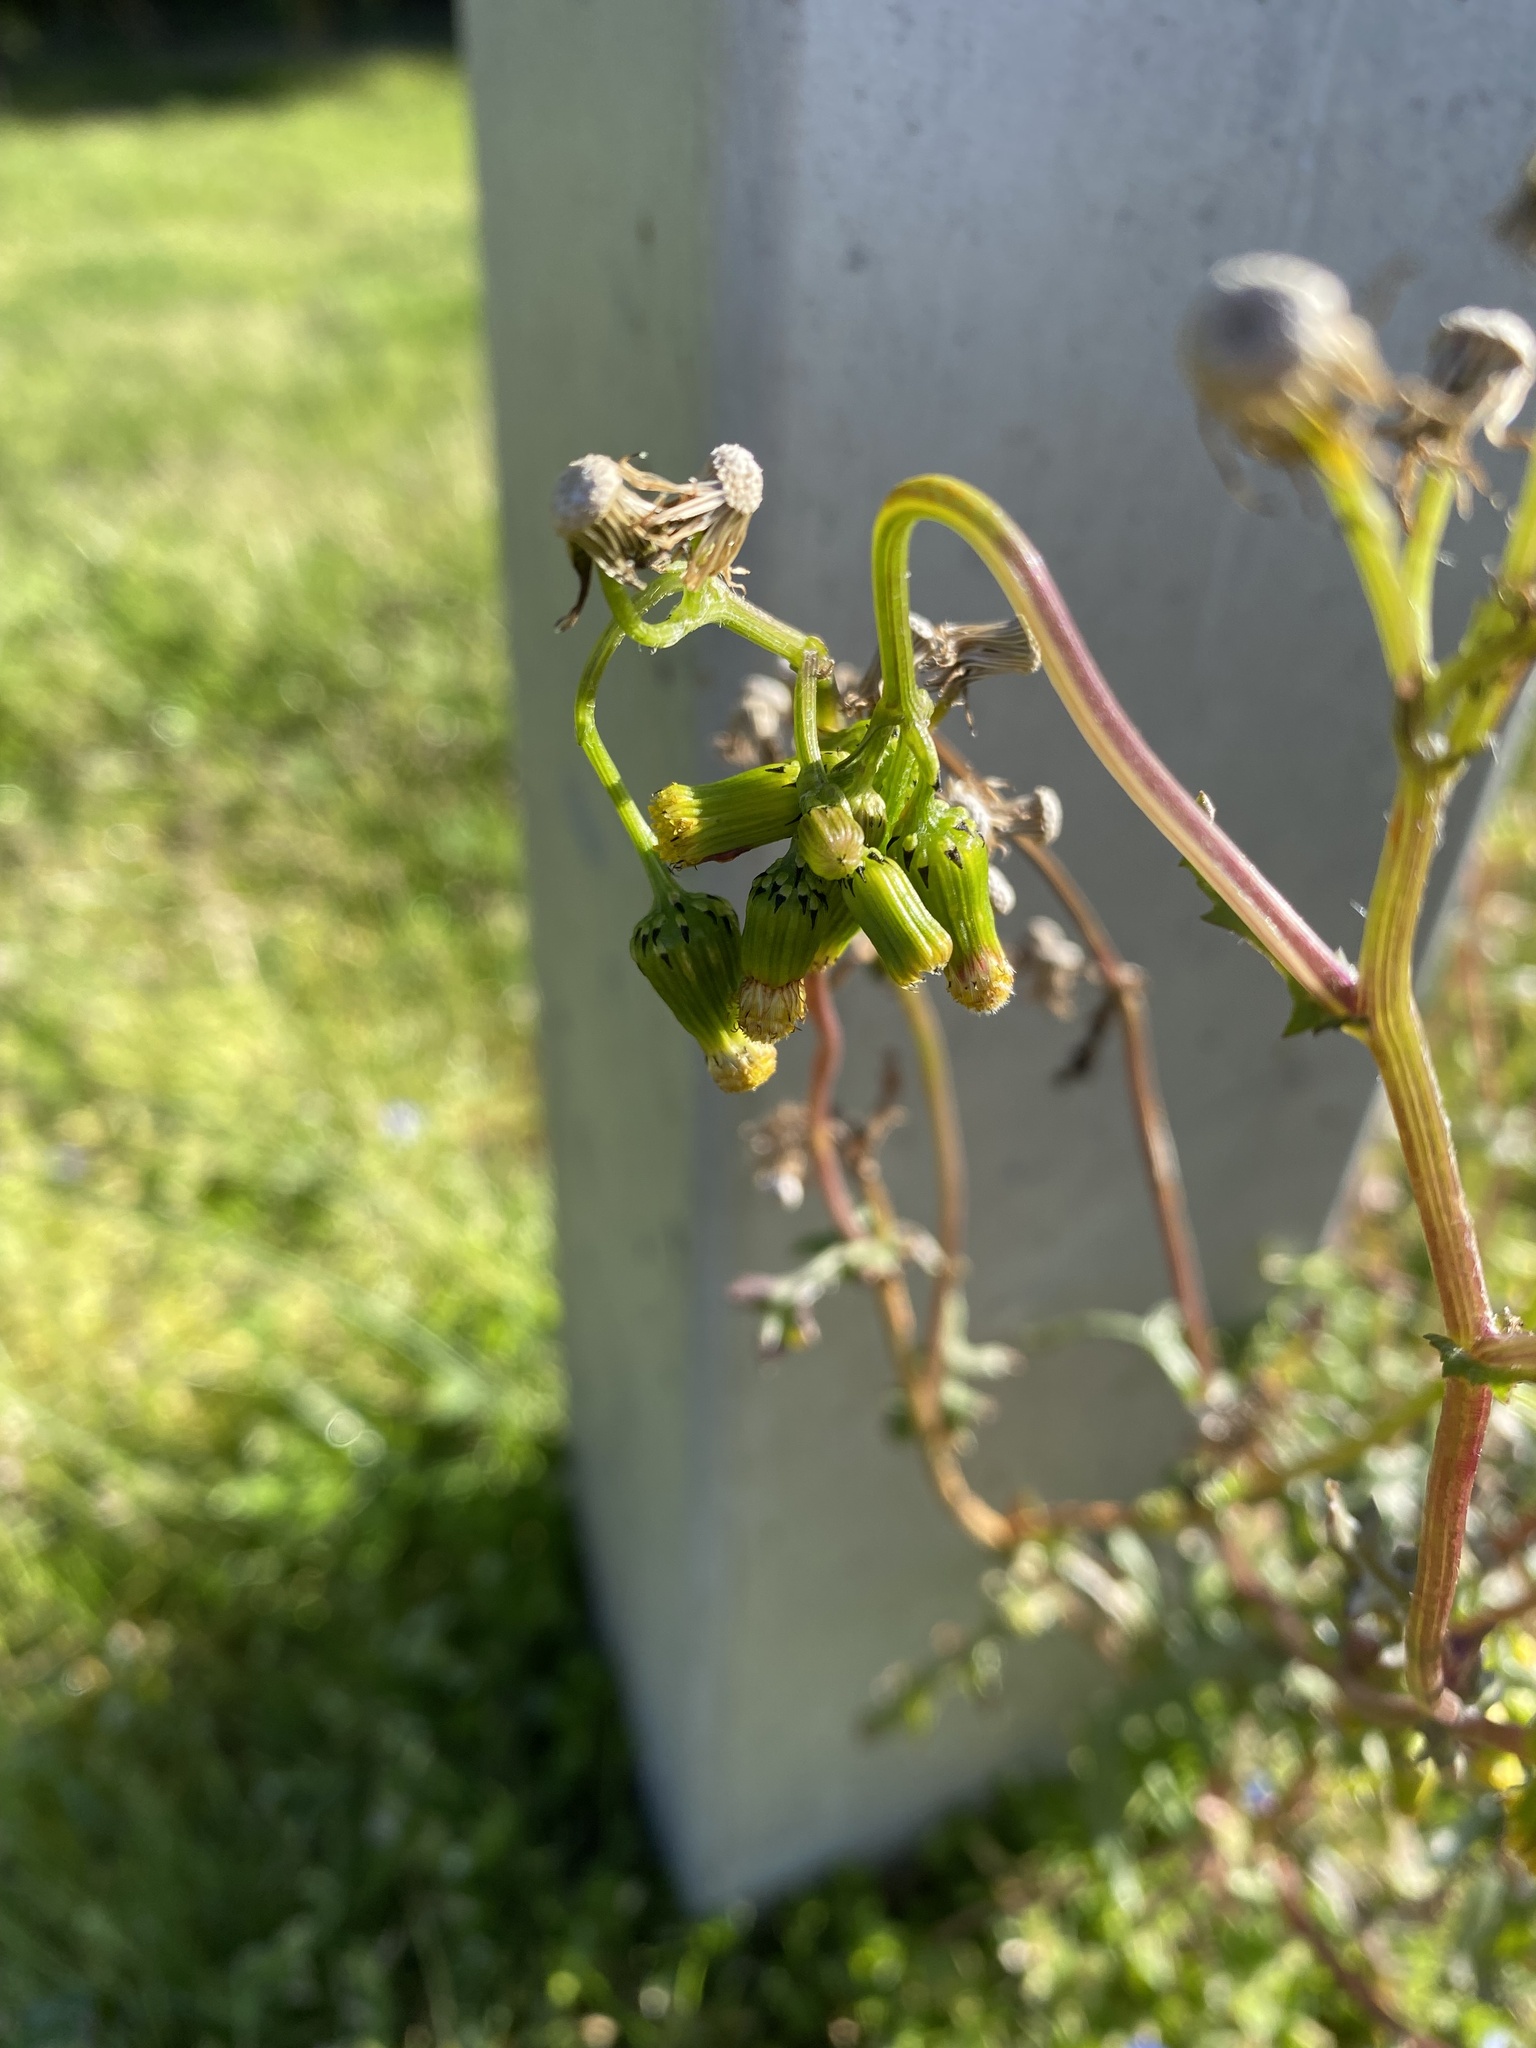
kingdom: Plantae
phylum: Tracheophyta
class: Magnoliopsida
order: Asterales
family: Asteraceae
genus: Senecio
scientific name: Senecio vulgaris
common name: Old-man-in-the-spring
